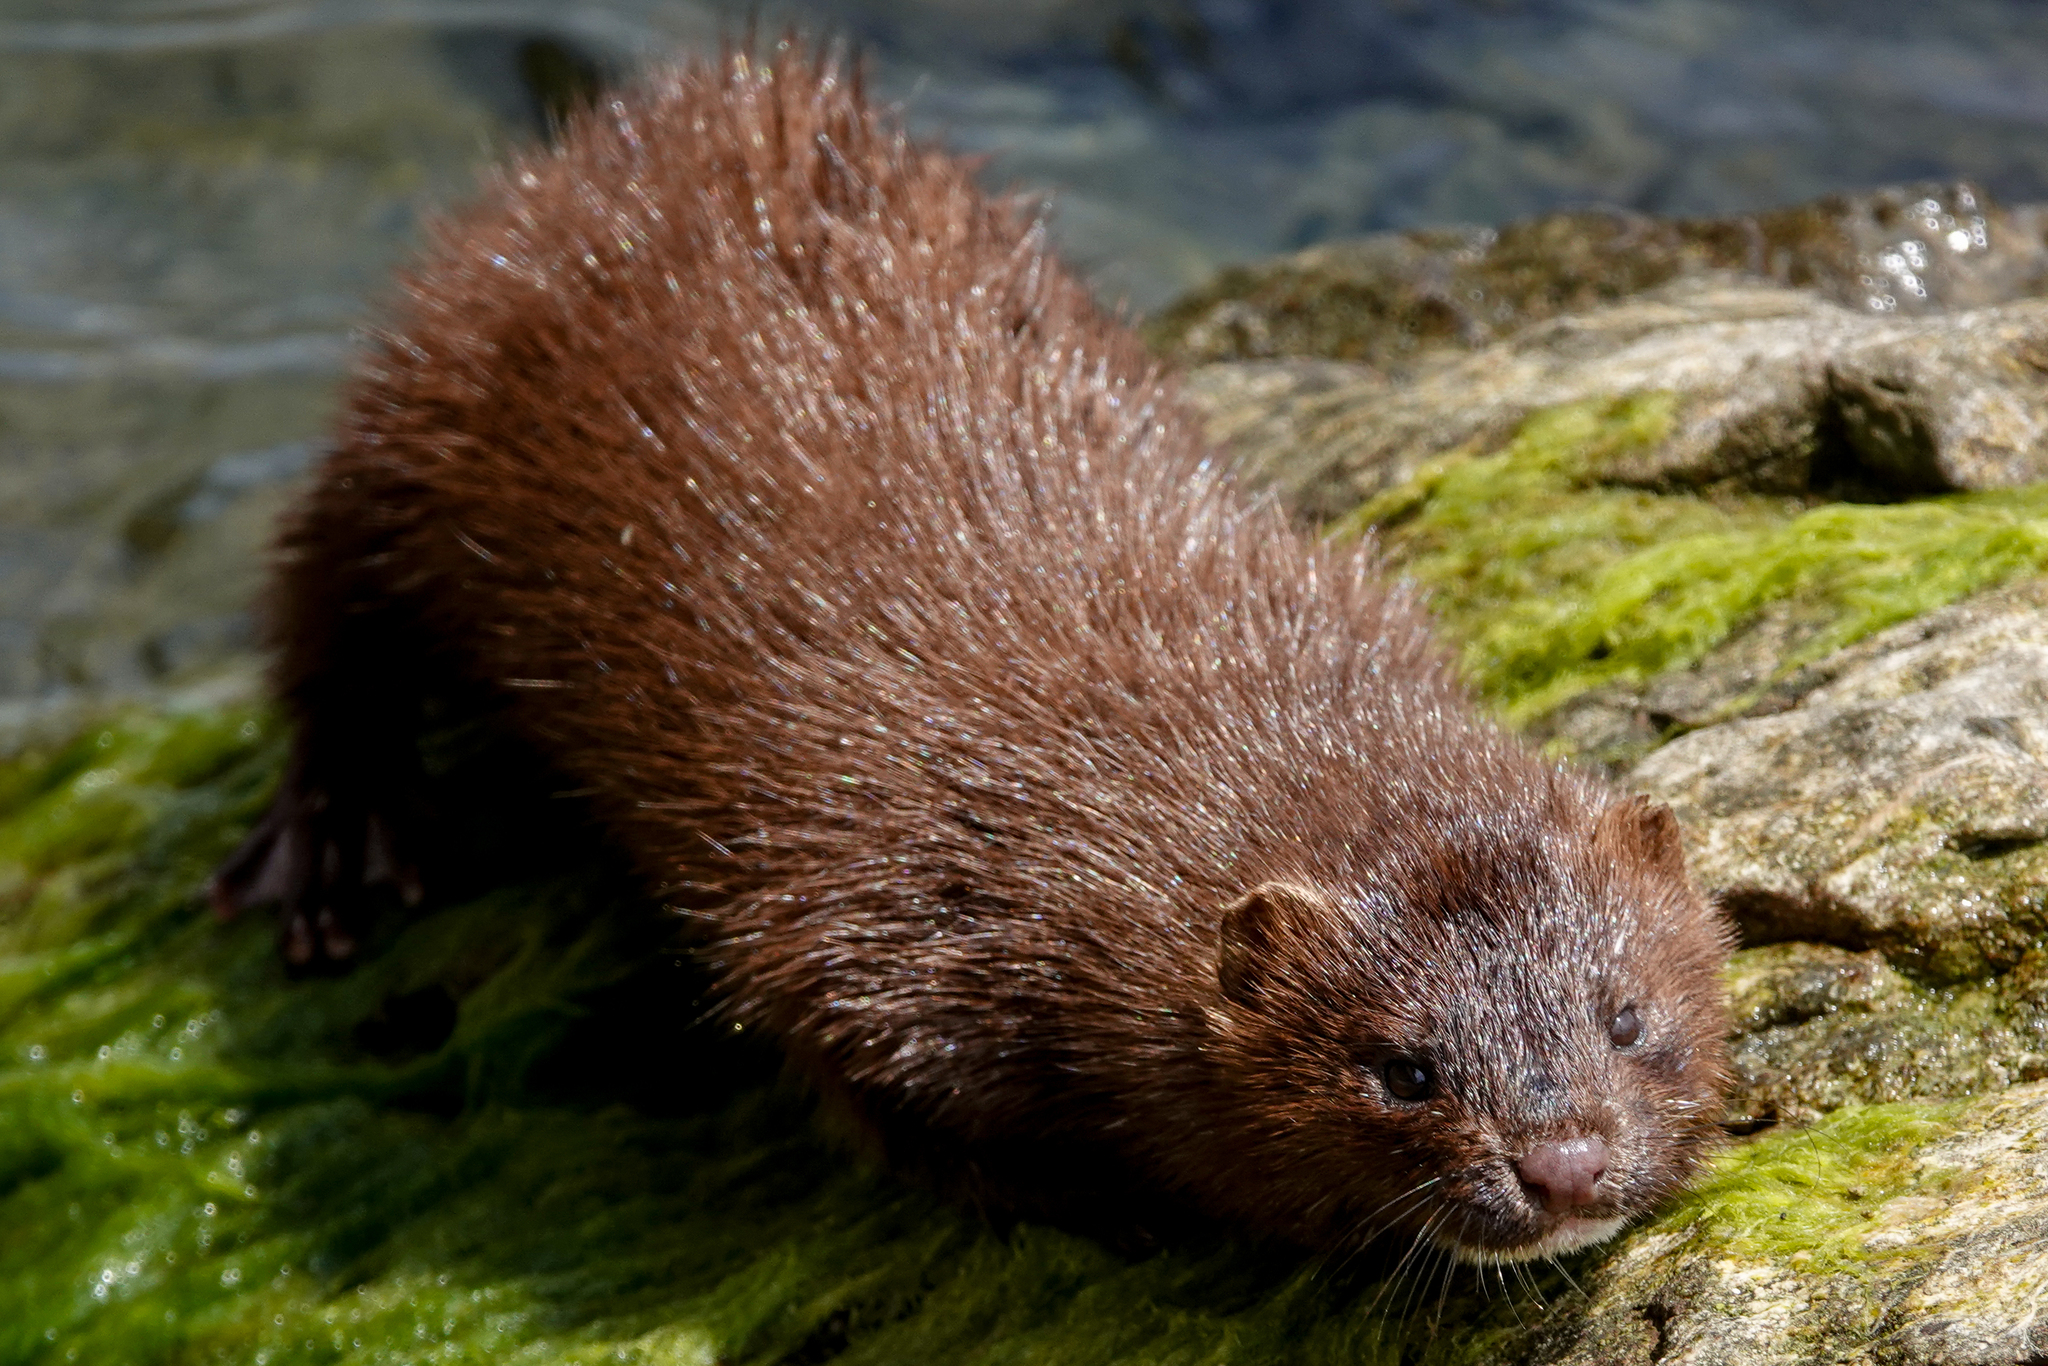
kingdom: Animalia
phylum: Chordata
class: Mammalia
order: Carnivora
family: Mustelidae
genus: Mustela
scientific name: Mustela
